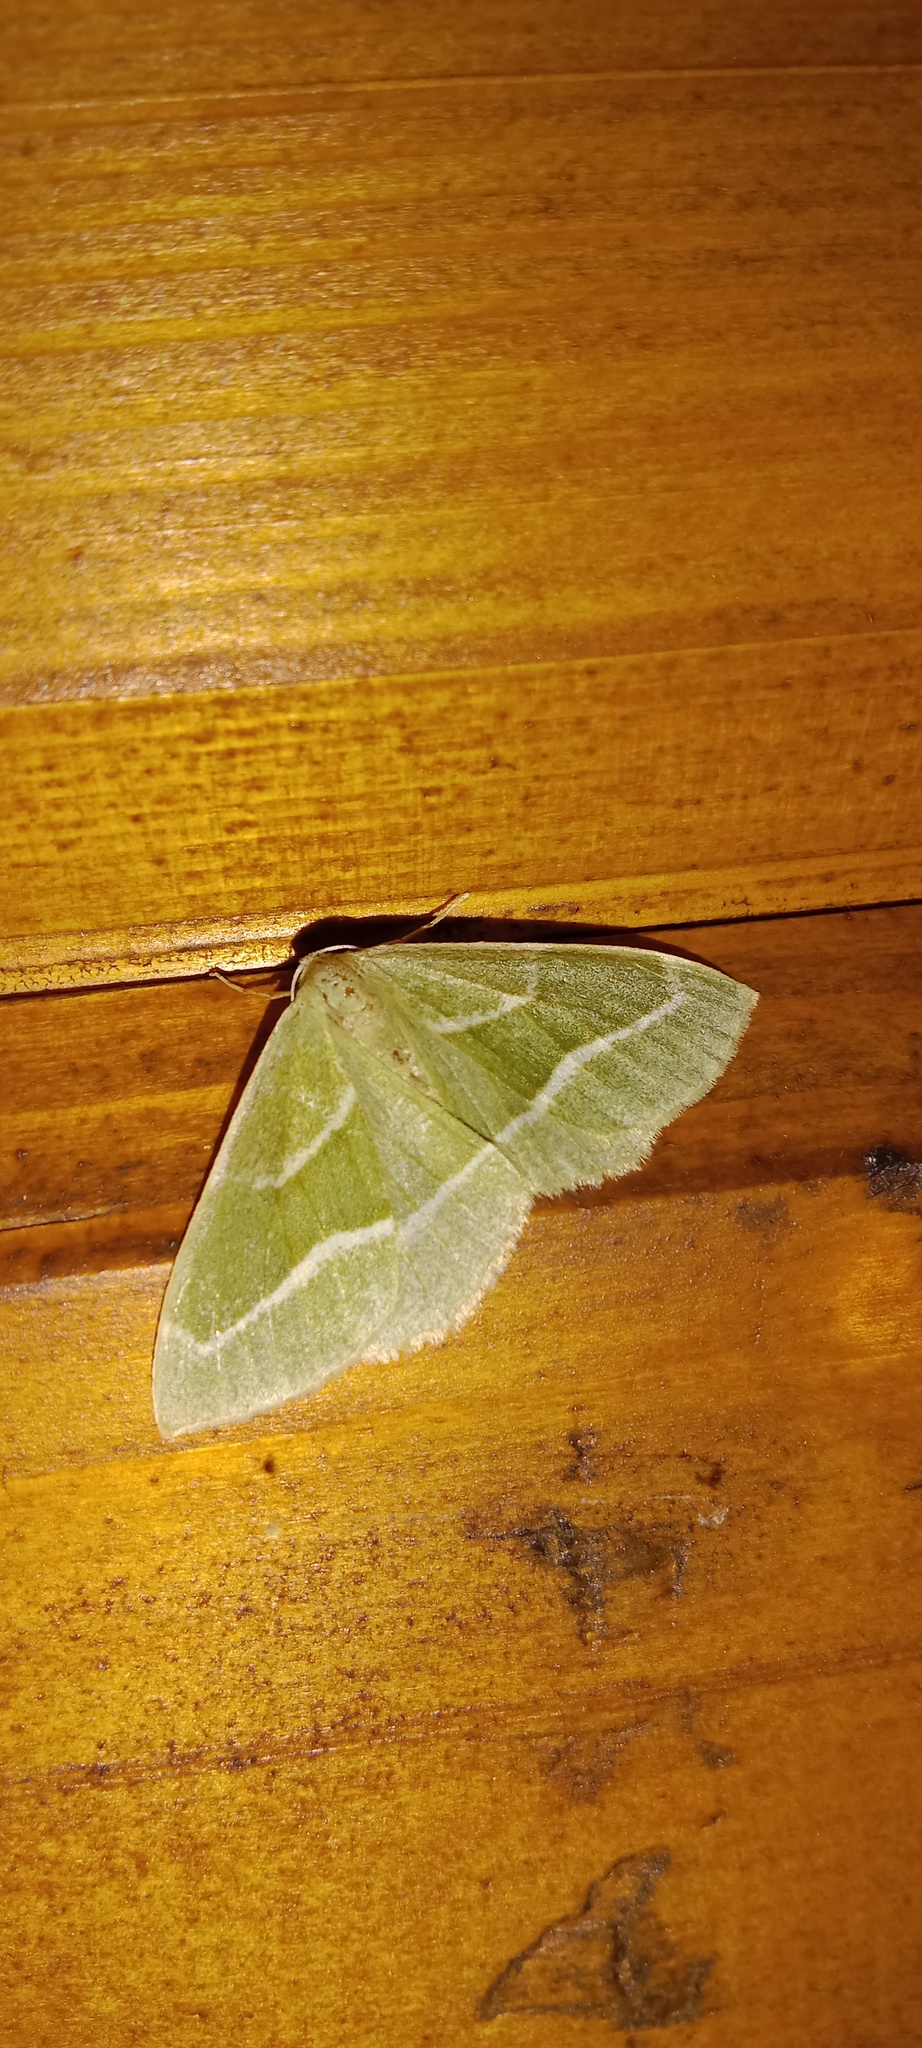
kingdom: Animalia
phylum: Arthropoda
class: Insecta
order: Lepidoptera
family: Geometridae
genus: Hylaea
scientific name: Hylaea fasciaria
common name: Barred red
